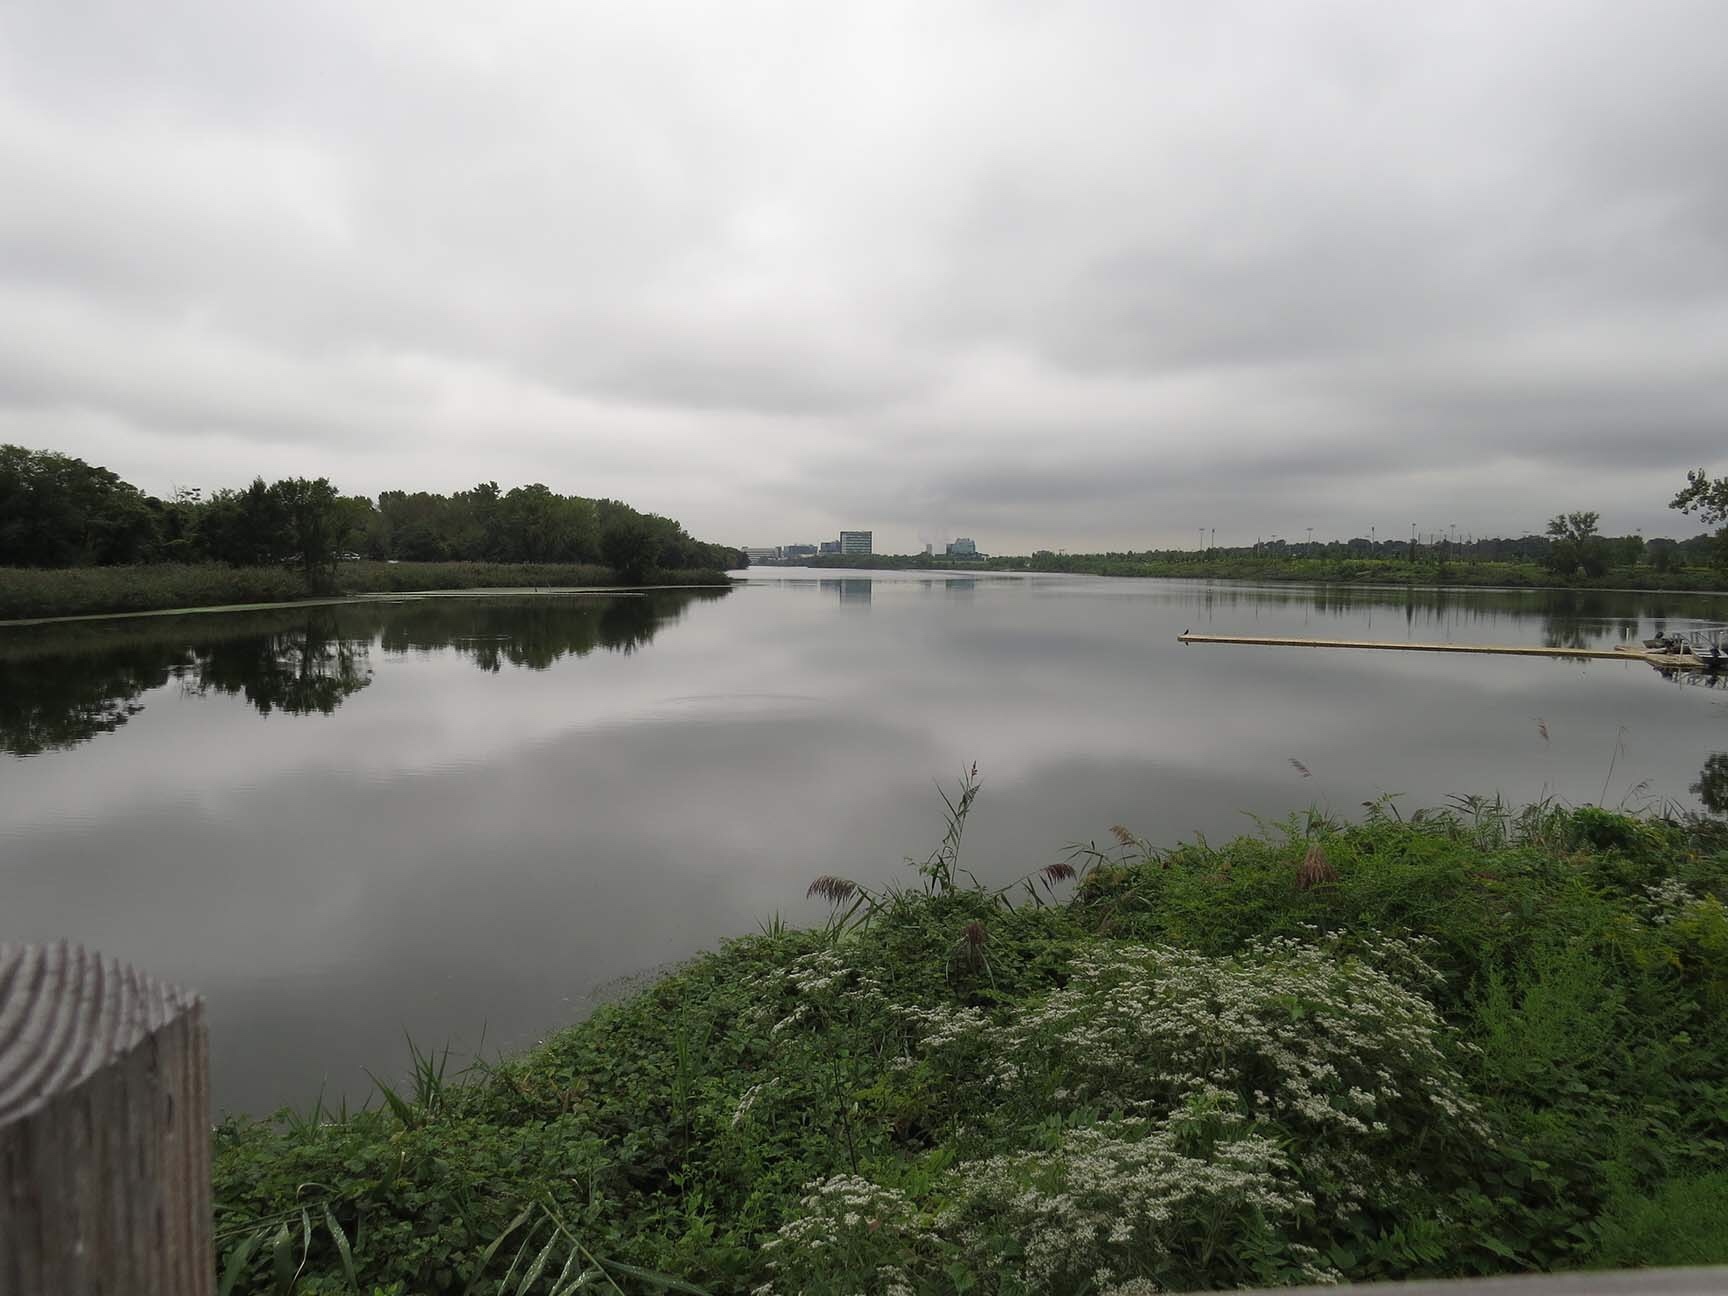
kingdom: Animalia
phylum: Chordata
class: Aves
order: Suliformes
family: Phalacrocoracidae
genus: Phalacrocorax
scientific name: Phalacrocorax auritus
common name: Double-crested cormorant
